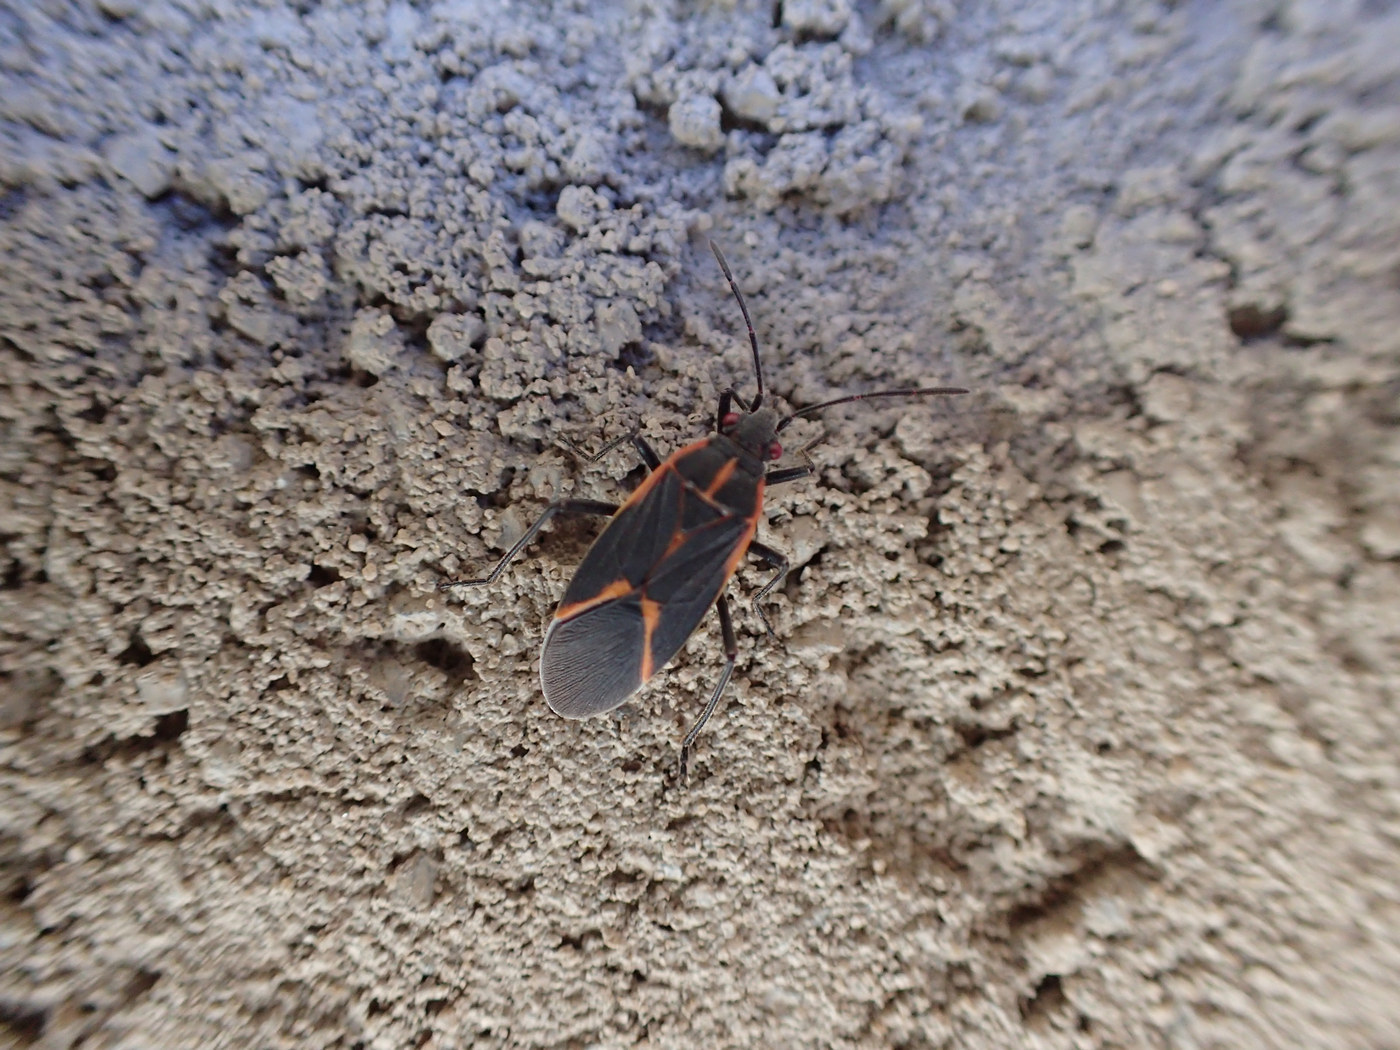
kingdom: Animalia
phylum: Arthropoda
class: Insecta
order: Hemiptera
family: Rhopalidae
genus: Boisea
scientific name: Boisea trivittata
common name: Boxelder bug
